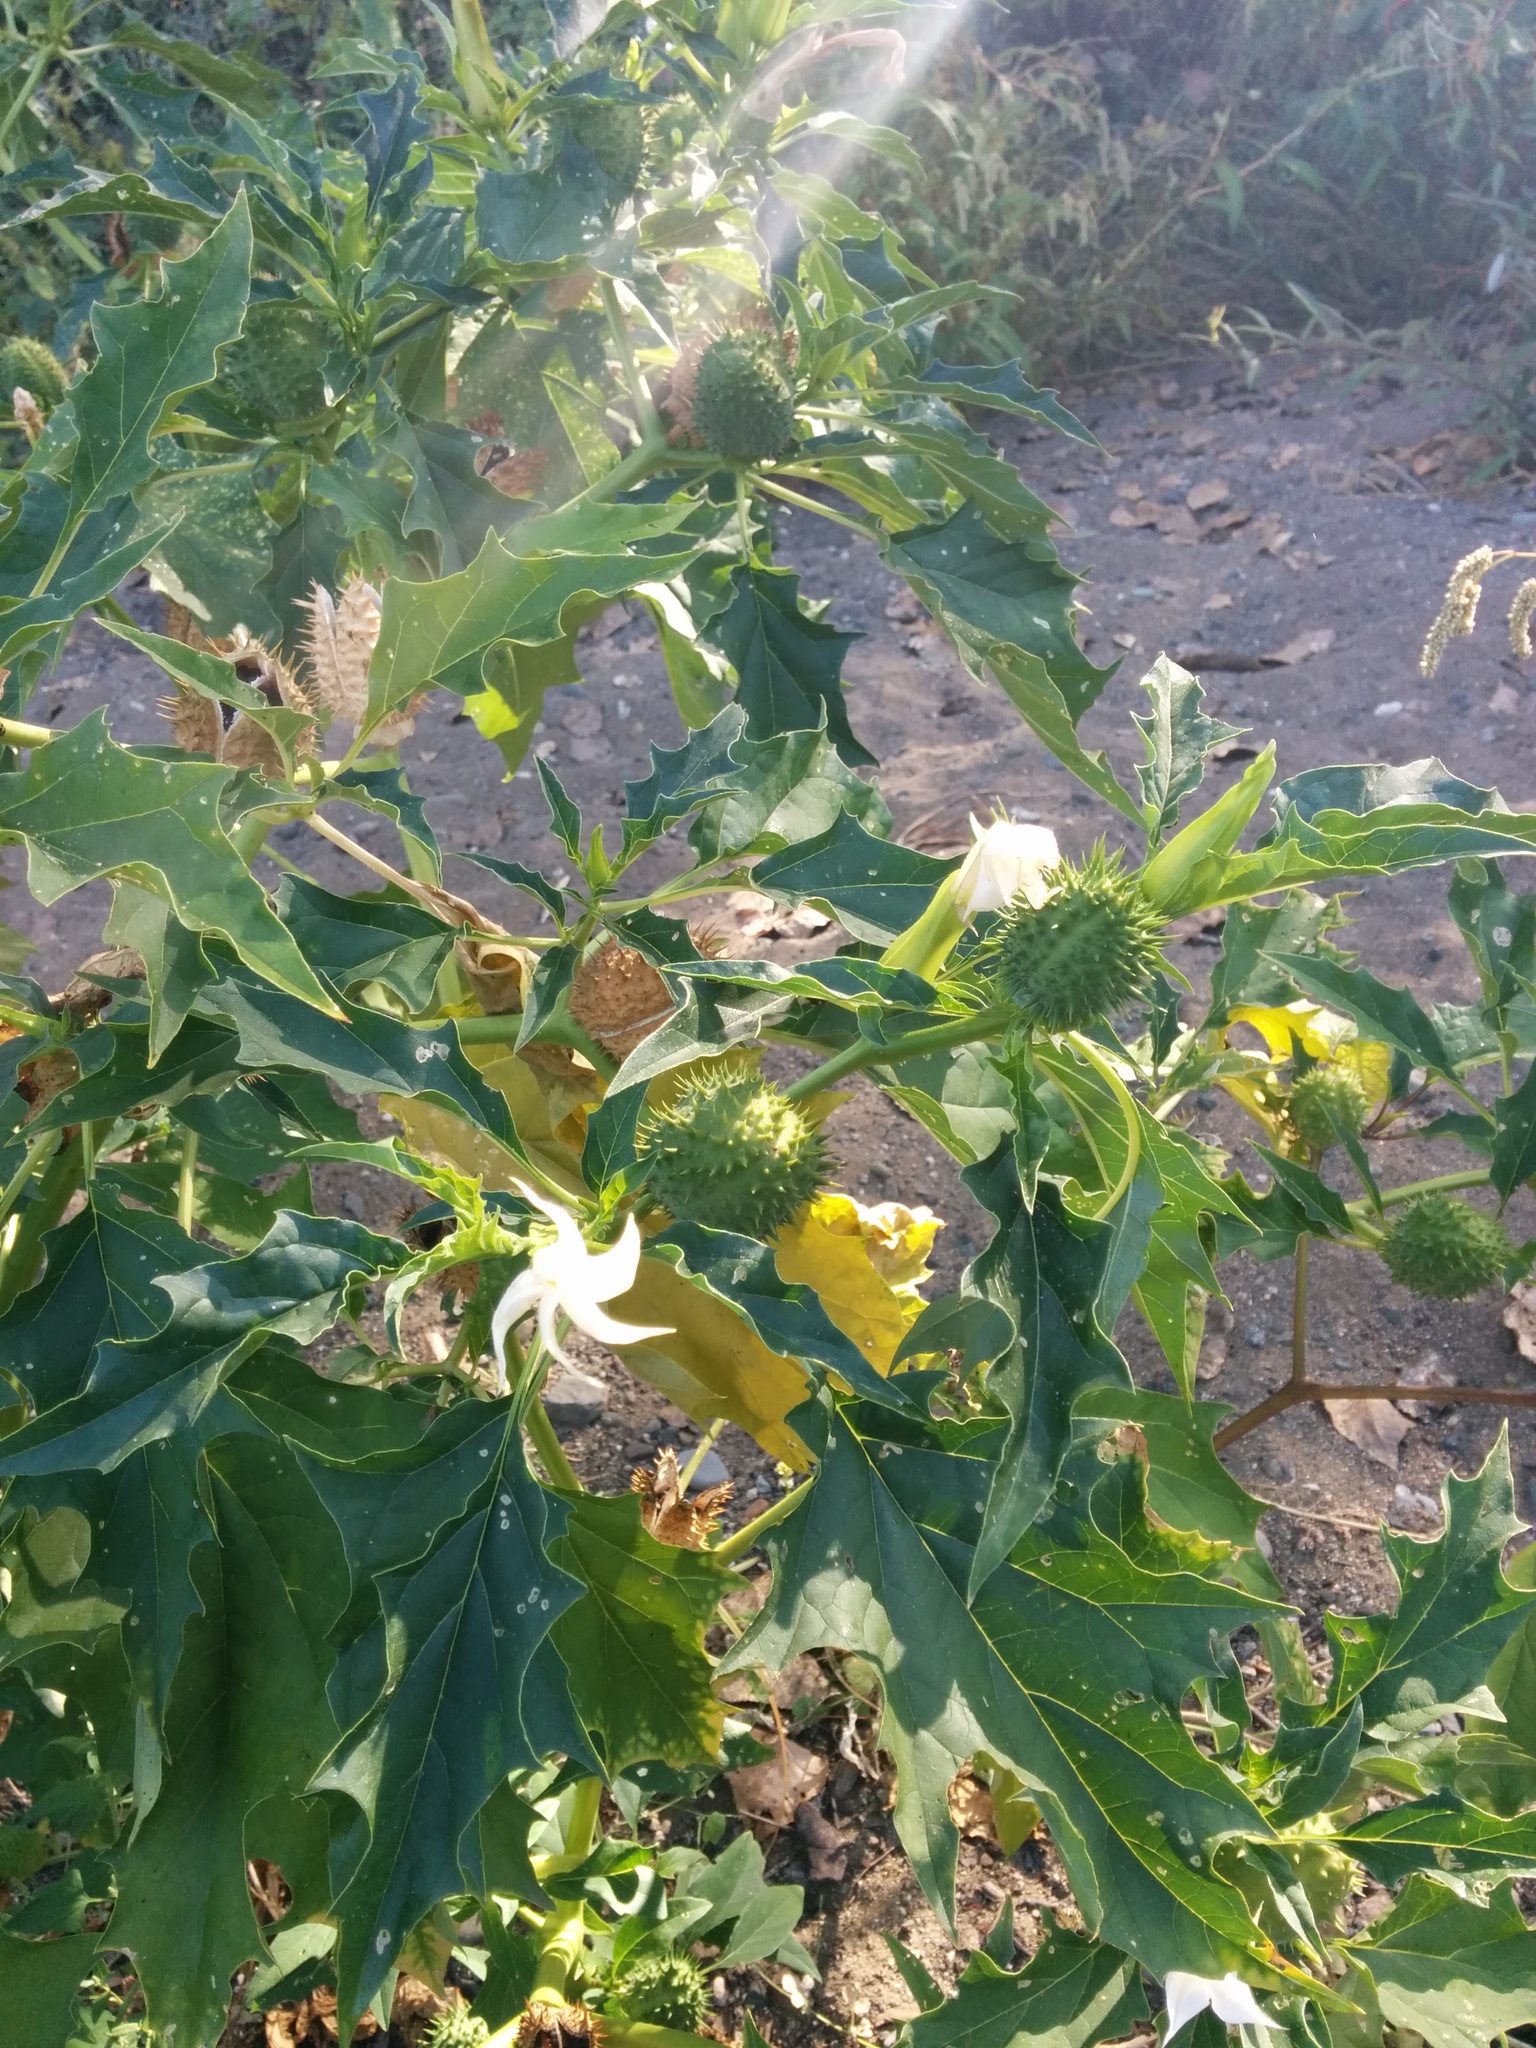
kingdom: Plantae
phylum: Tracheophyta
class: Magnoliopsida
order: Solanales
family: Solanaceae
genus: Datura
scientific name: Datura stramonium
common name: Thorn-apple
